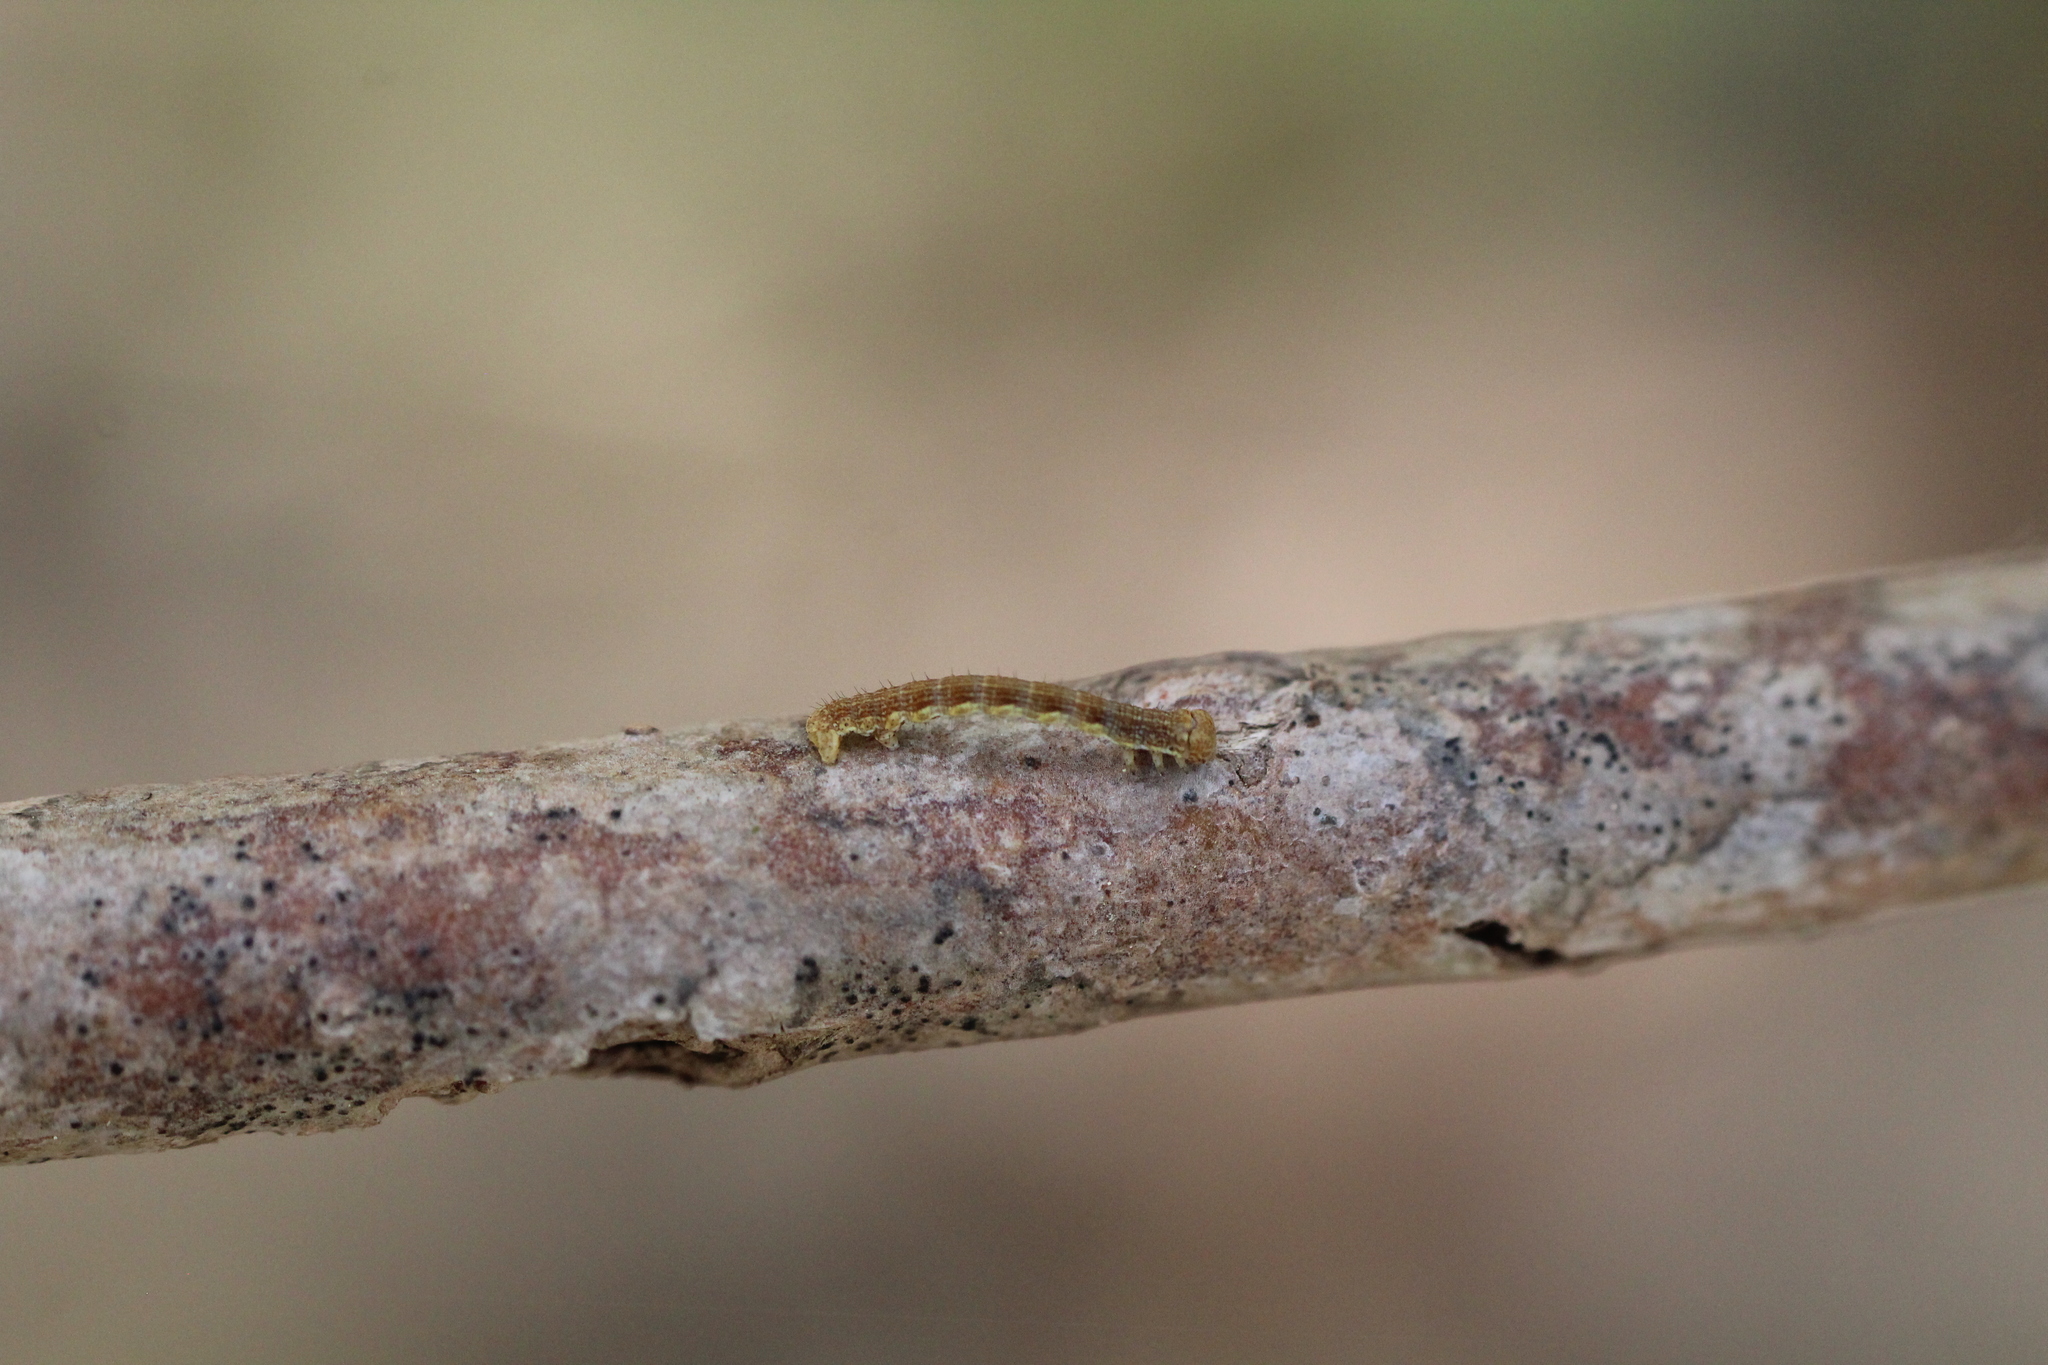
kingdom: Animalia
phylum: Arthropoda
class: Insecta
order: Lepidoptera
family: Geometridae
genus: Erannis
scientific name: Erannis defoliaria
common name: Mottled umber
